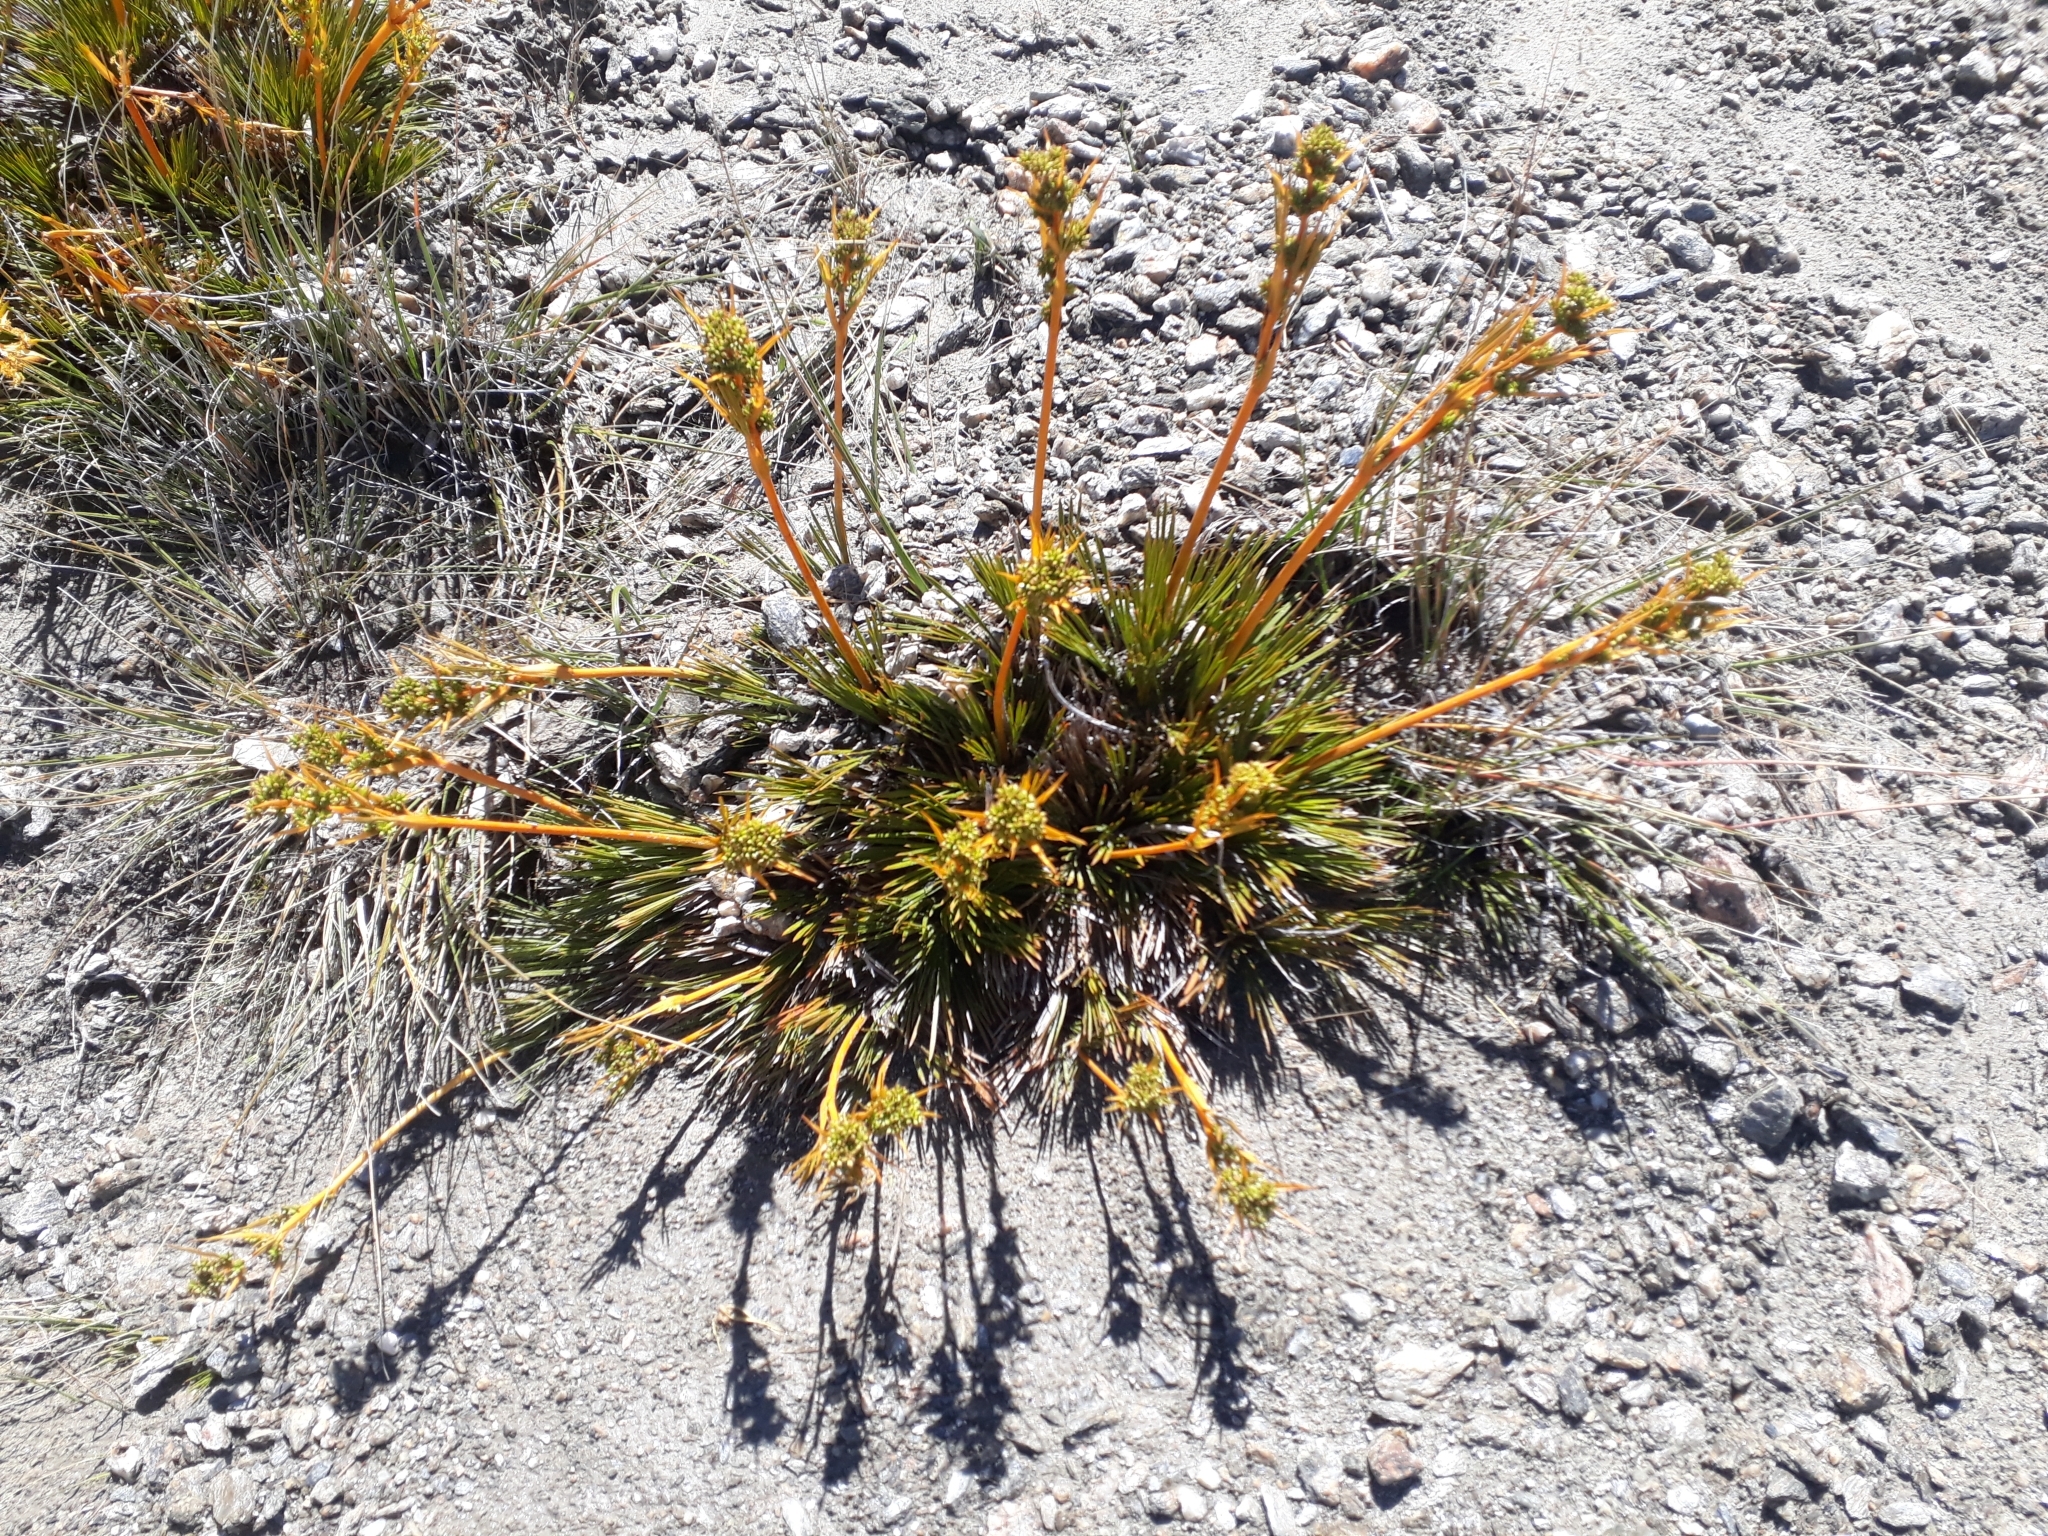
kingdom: Plantae
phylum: Tracheophyta
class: Magnoliopsida
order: Apiales
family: Apiaceae
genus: Aciphylla
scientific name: Aciphylla montana
